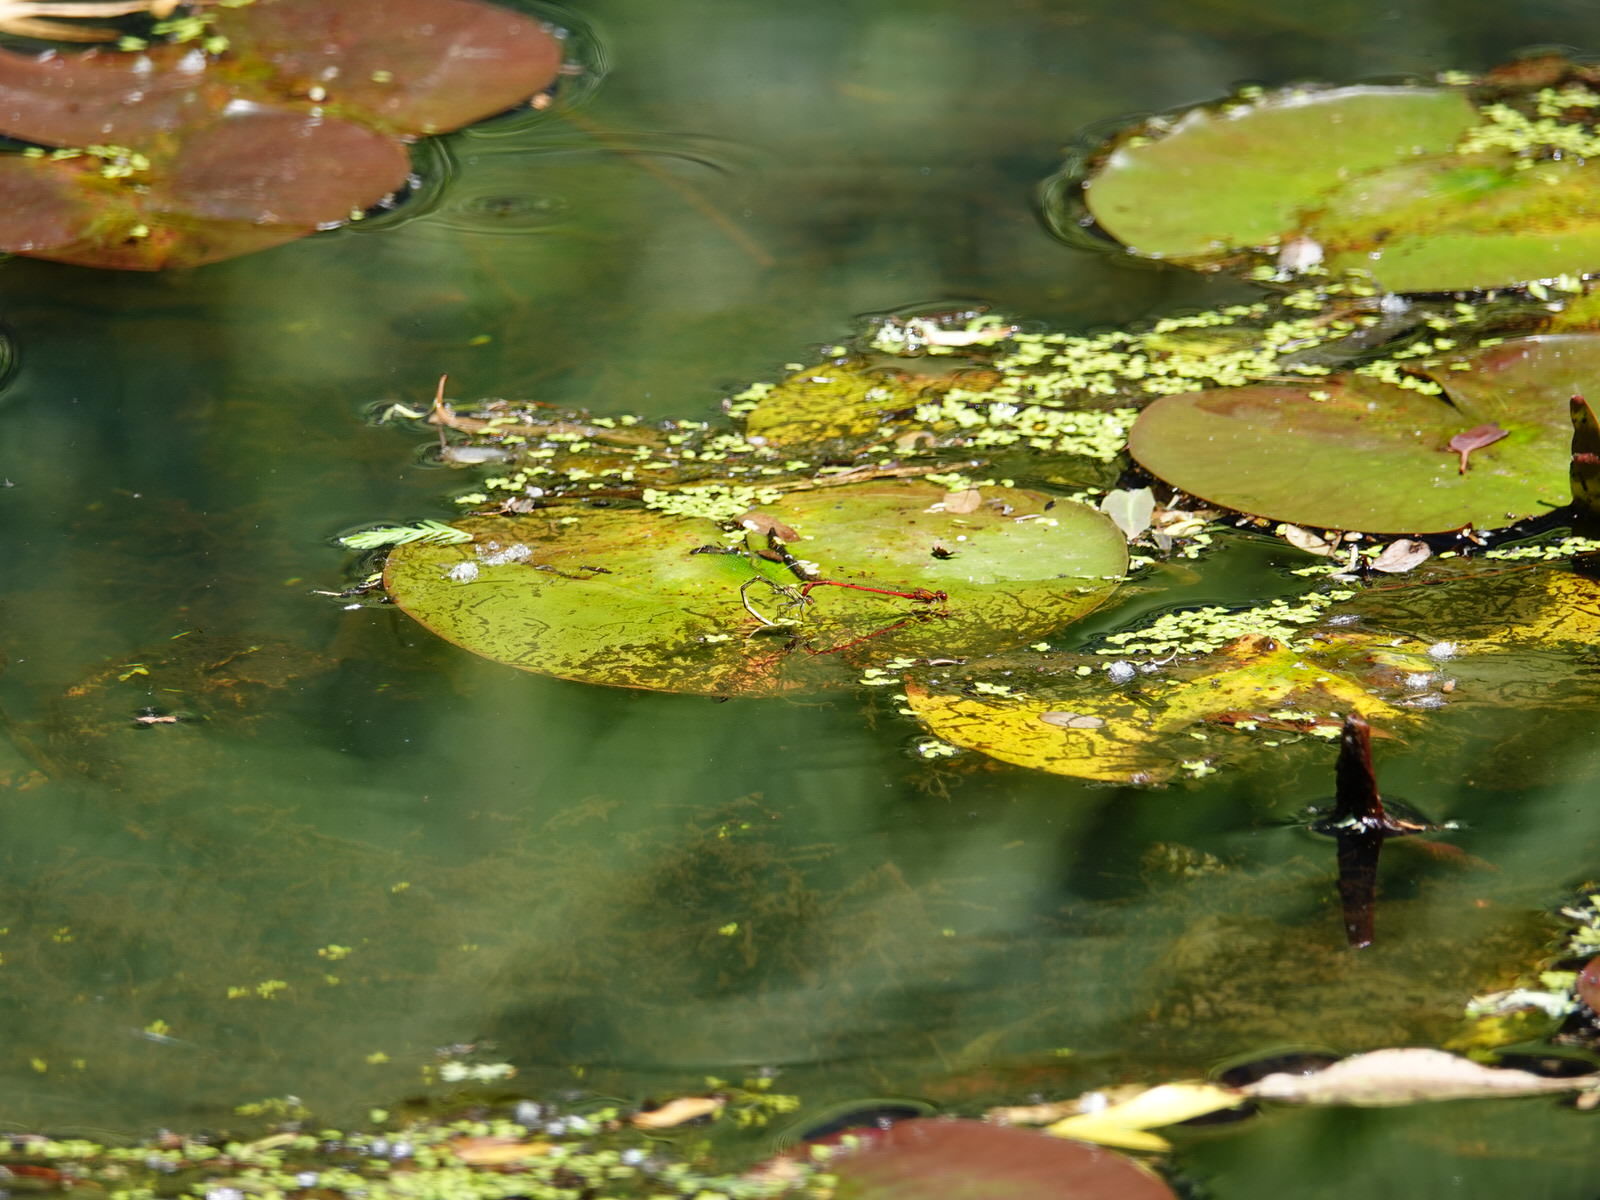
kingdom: Animalia
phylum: Arthropoda
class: Insecta
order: Odonata
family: Coenagrionidae
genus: Xanthocnemis
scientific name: Xanthocnemis zealandica
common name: Common redcoat damselfly
